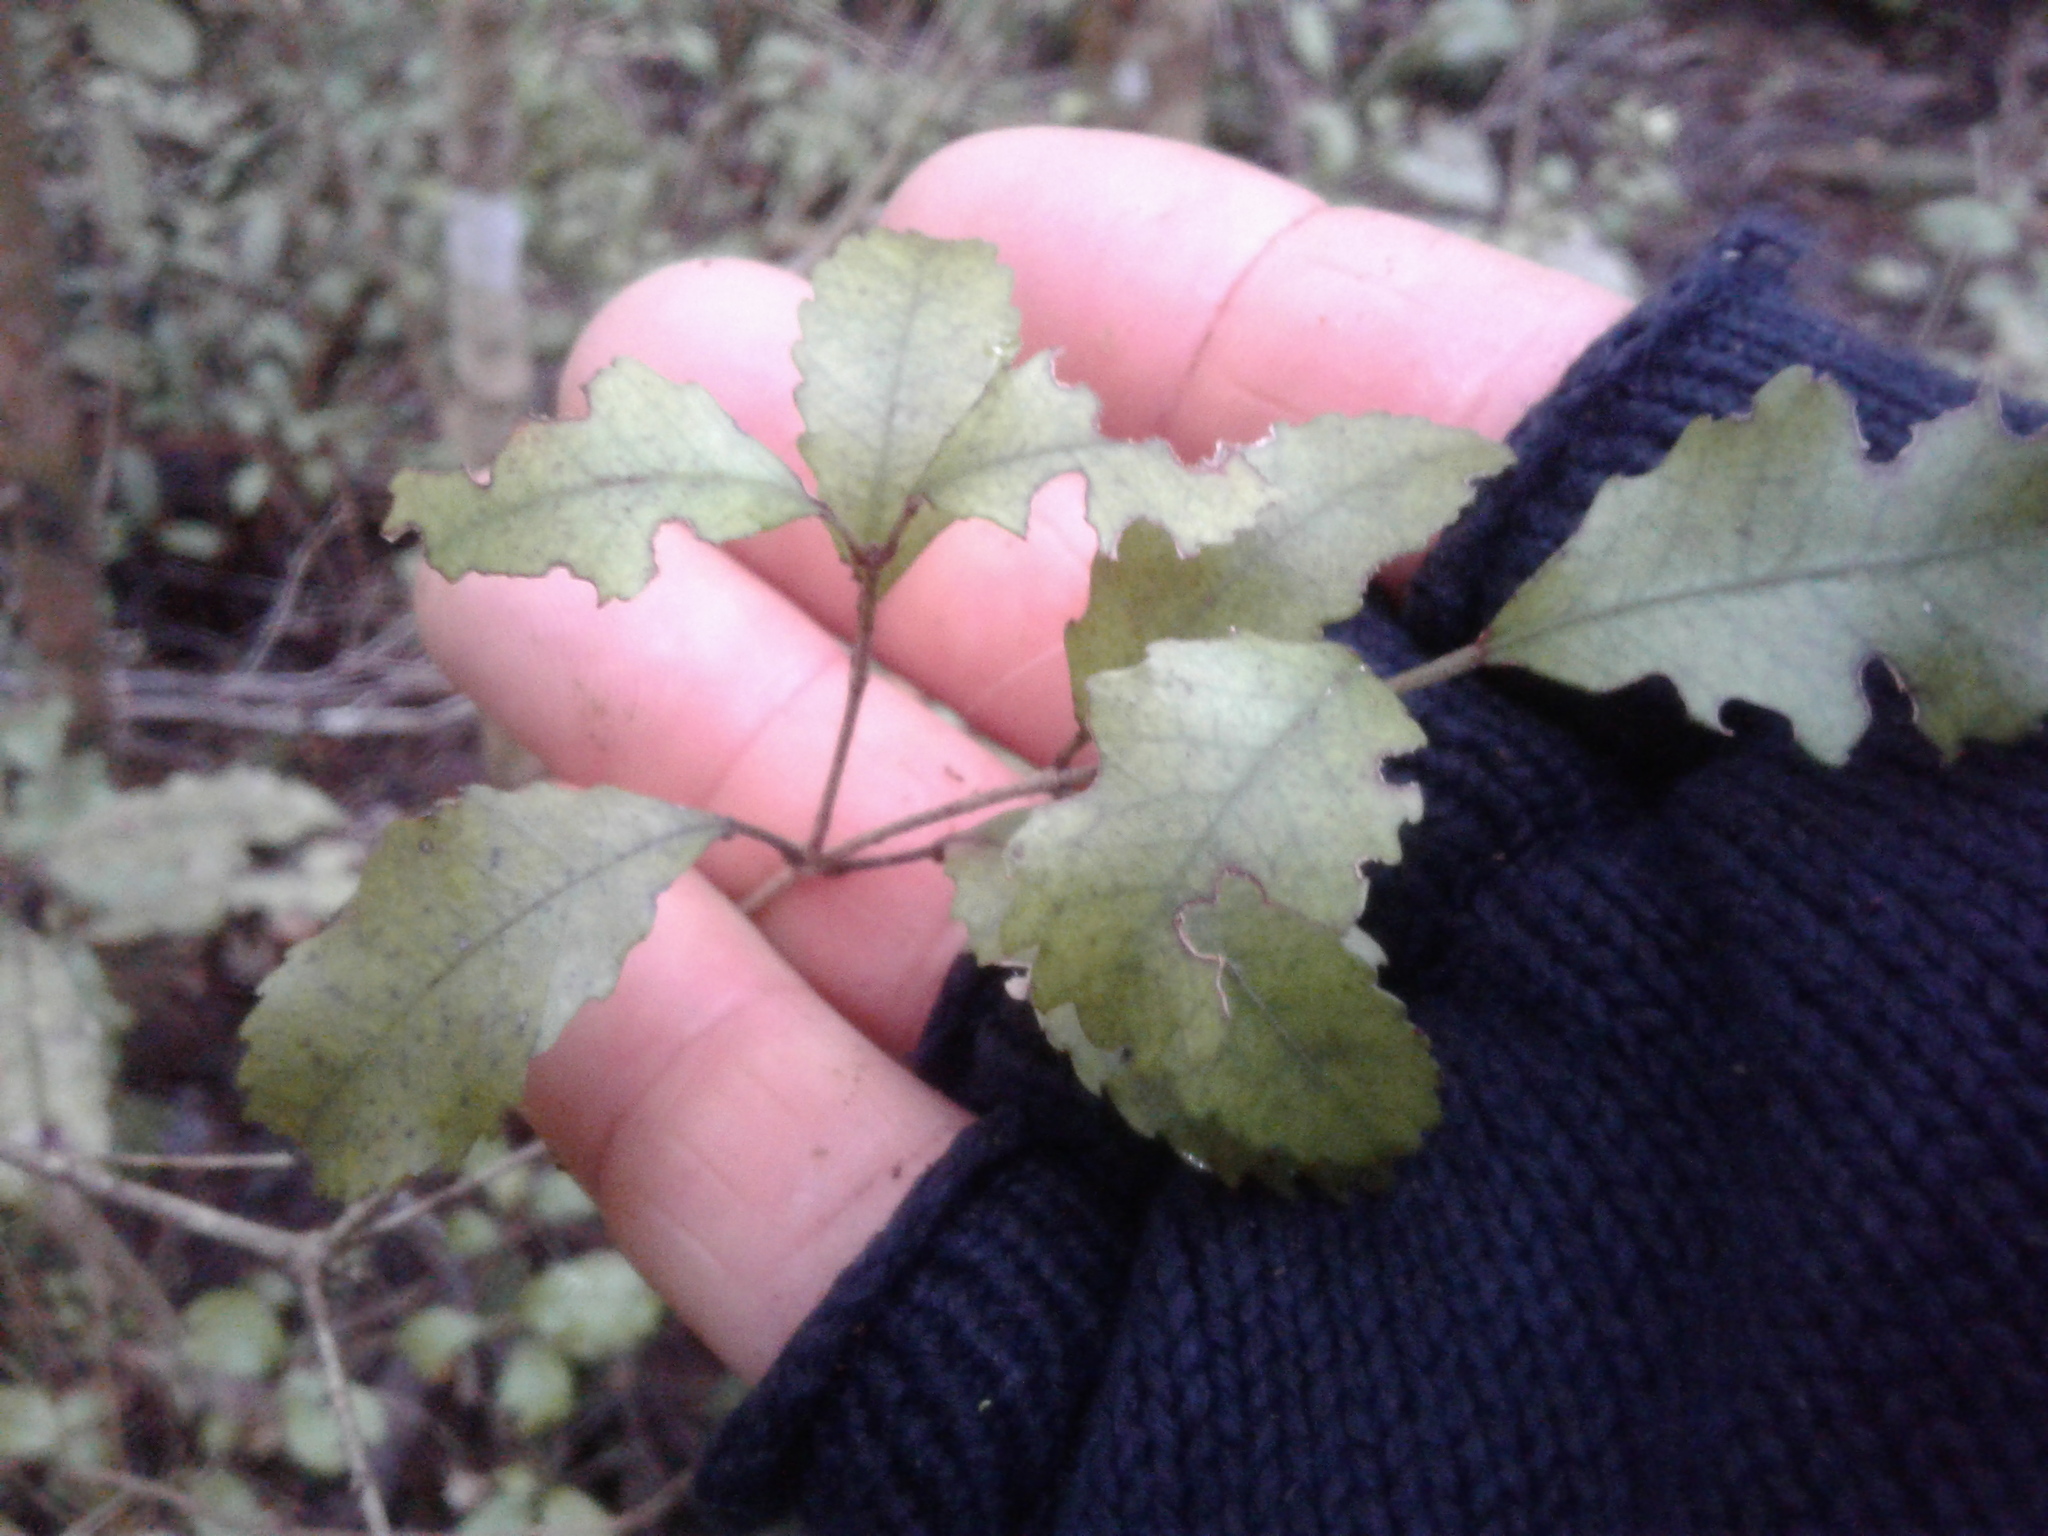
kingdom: Plantae
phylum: Tracheophyta
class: Magnoliopsida
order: Oxalidales
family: Cunoniaceae
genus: Pterophylla
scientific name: Pterophylla racemosa
